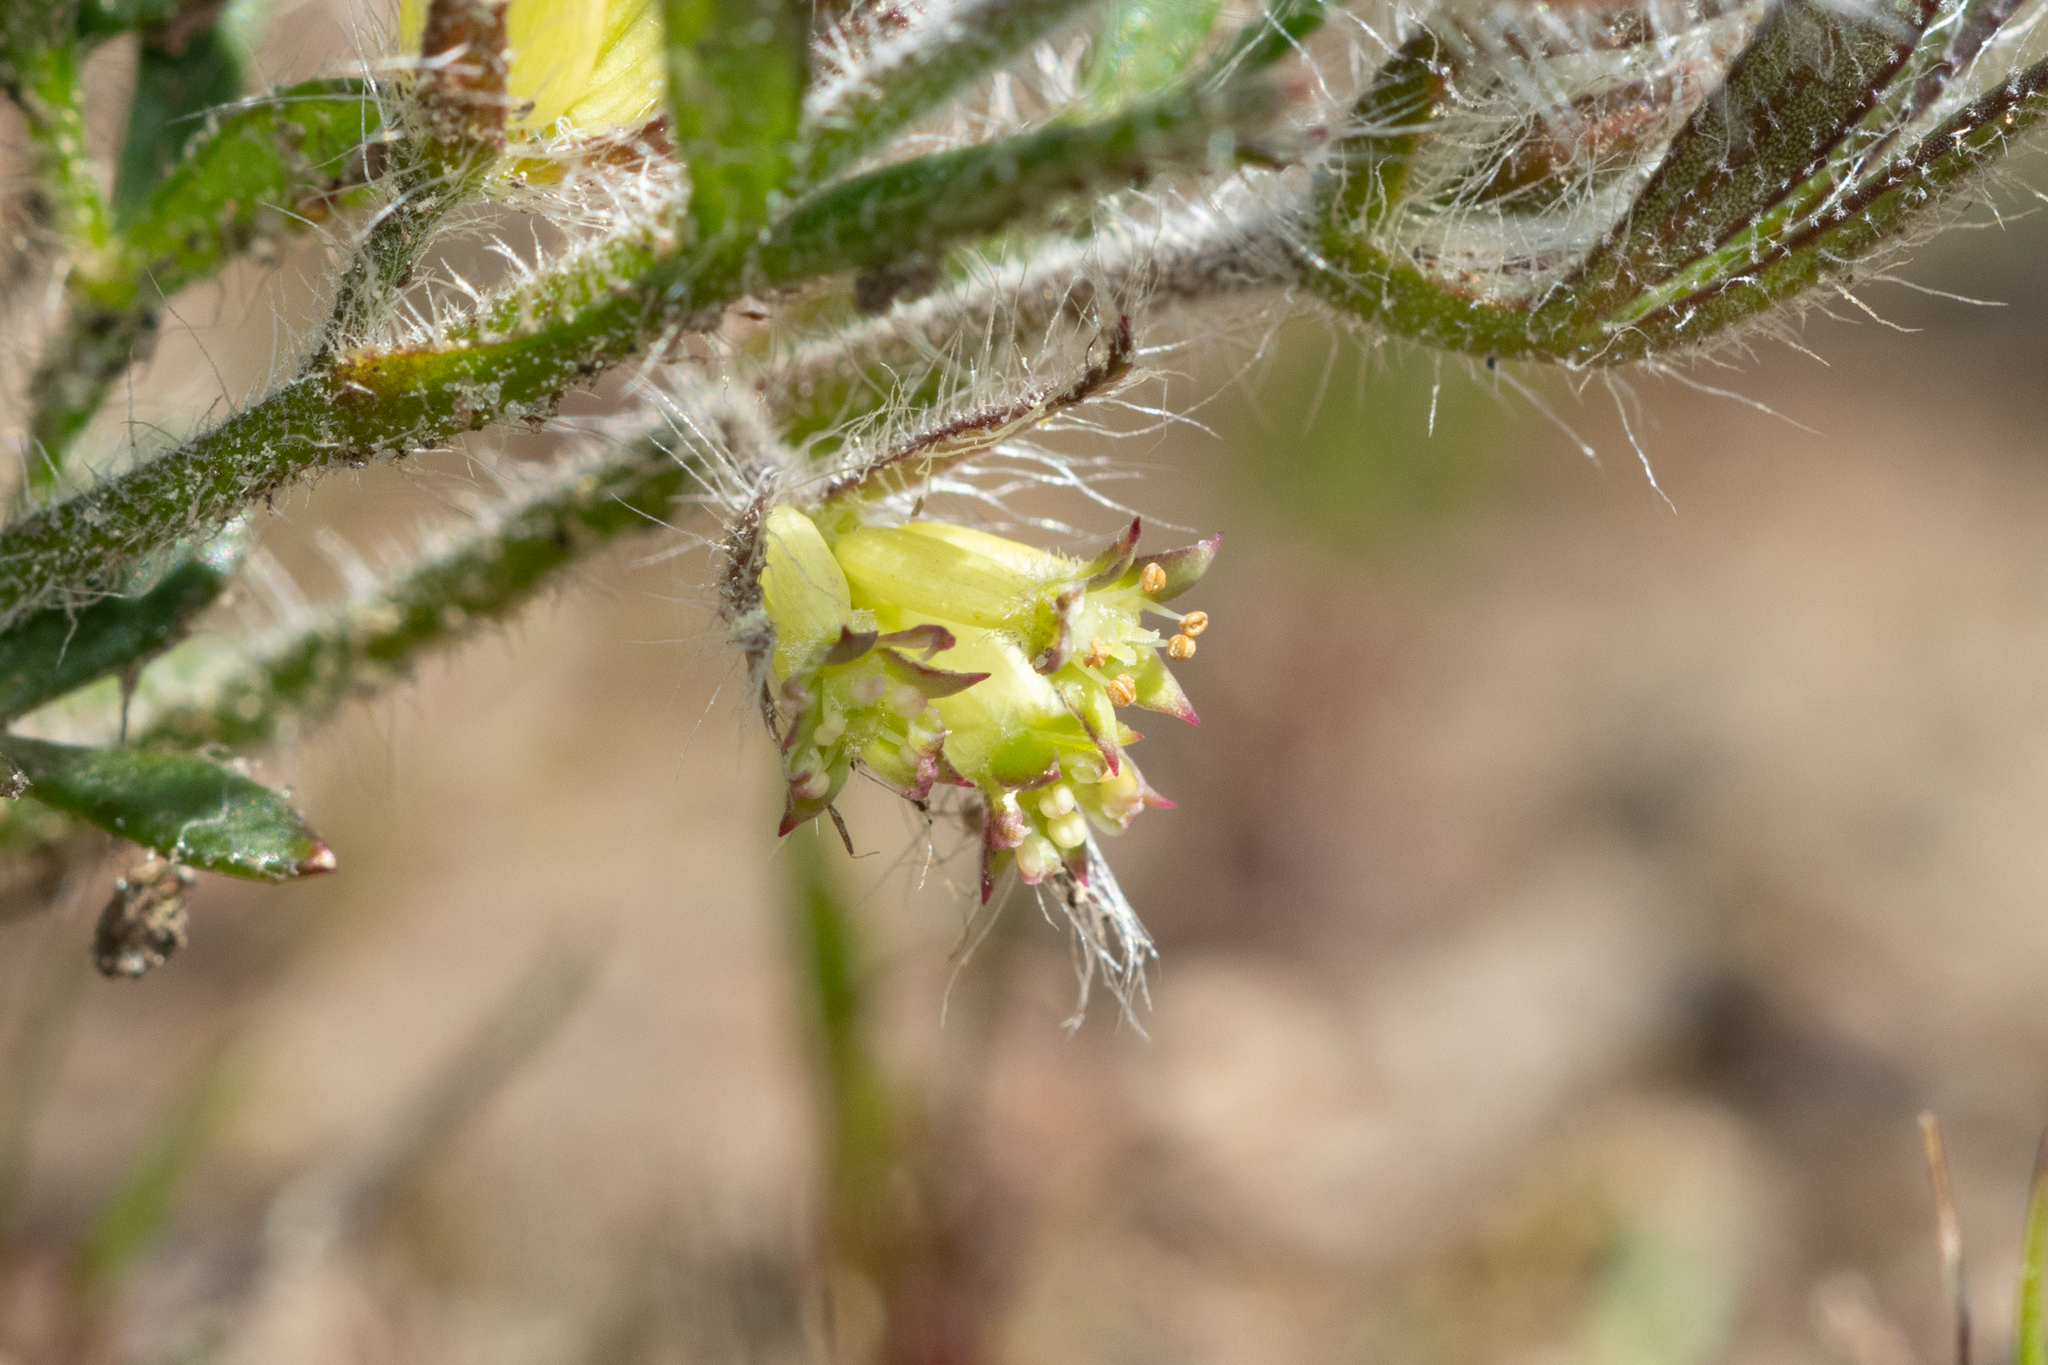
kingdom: Plantae
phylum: Tracheophyta
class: Magnoliopsida
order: Apiales
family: Apiaceae
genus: Xanthosia
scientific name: Xanthosia huegelii
